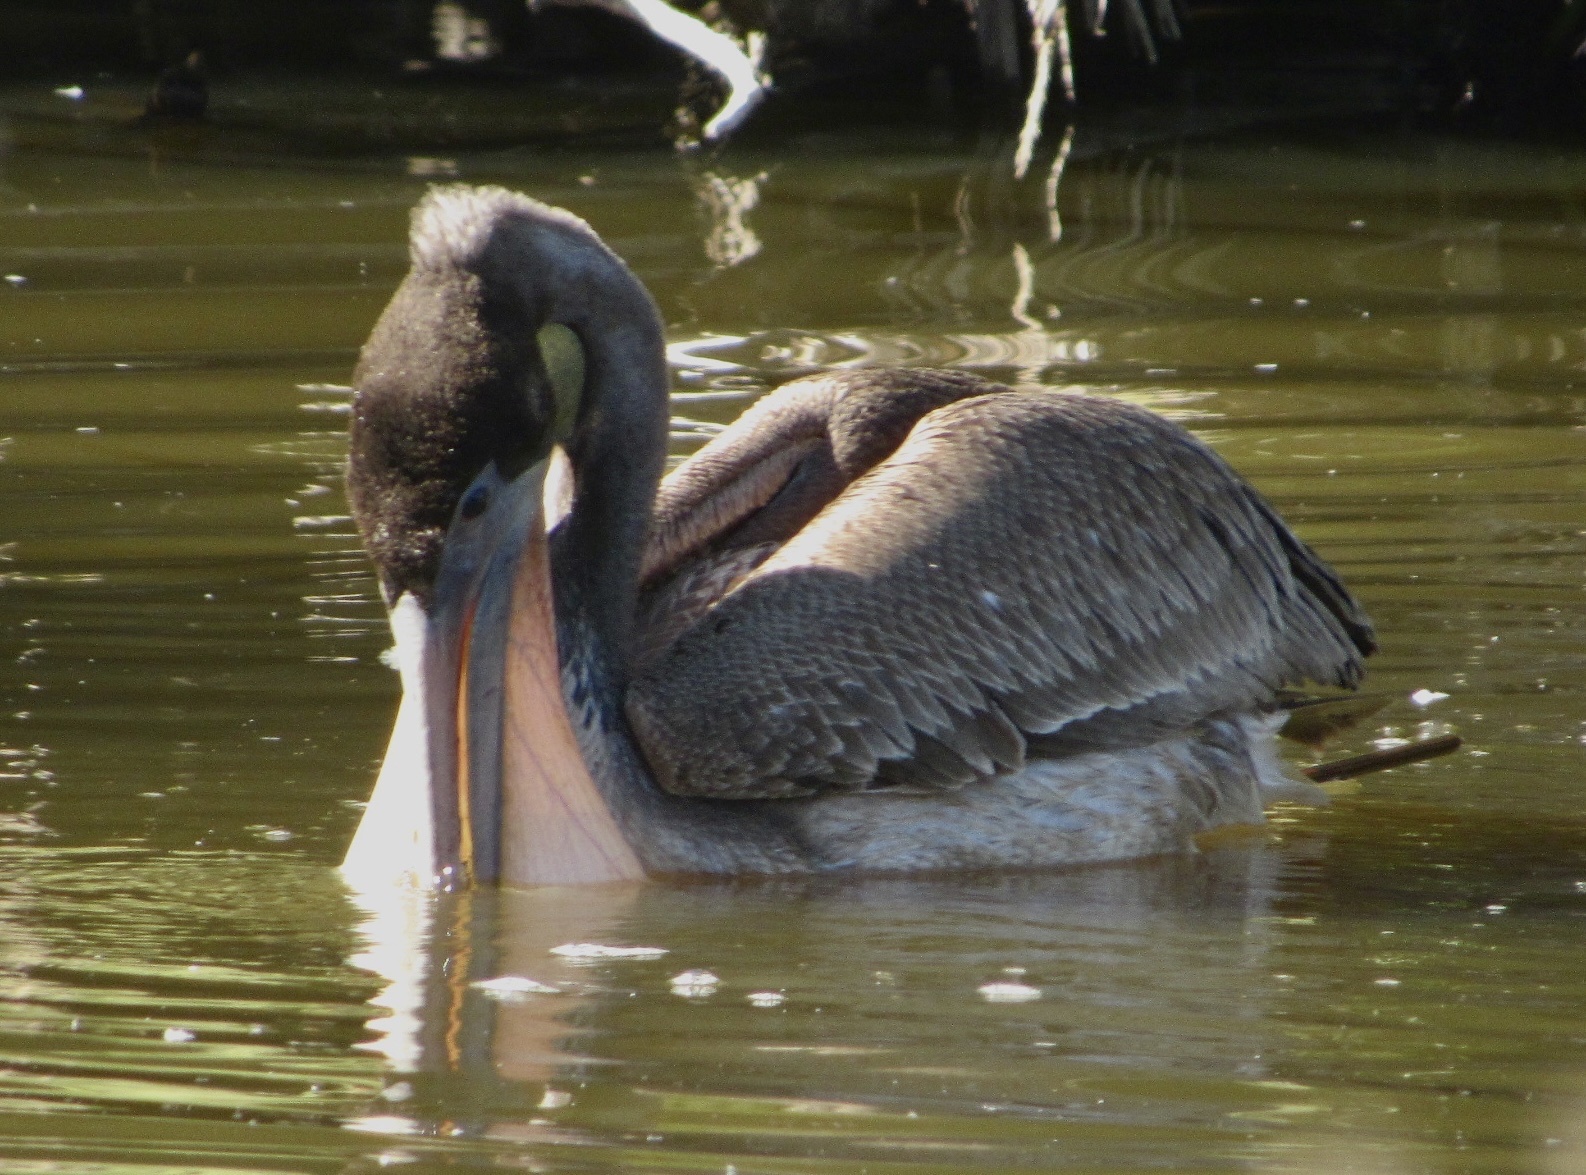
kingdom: Animalia
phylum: Chordata
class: Aves
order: Pelecaniformes
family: Pelecanidae
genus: Pelecanus
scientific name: Pelecanus occidentalis
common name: Brown pelican
